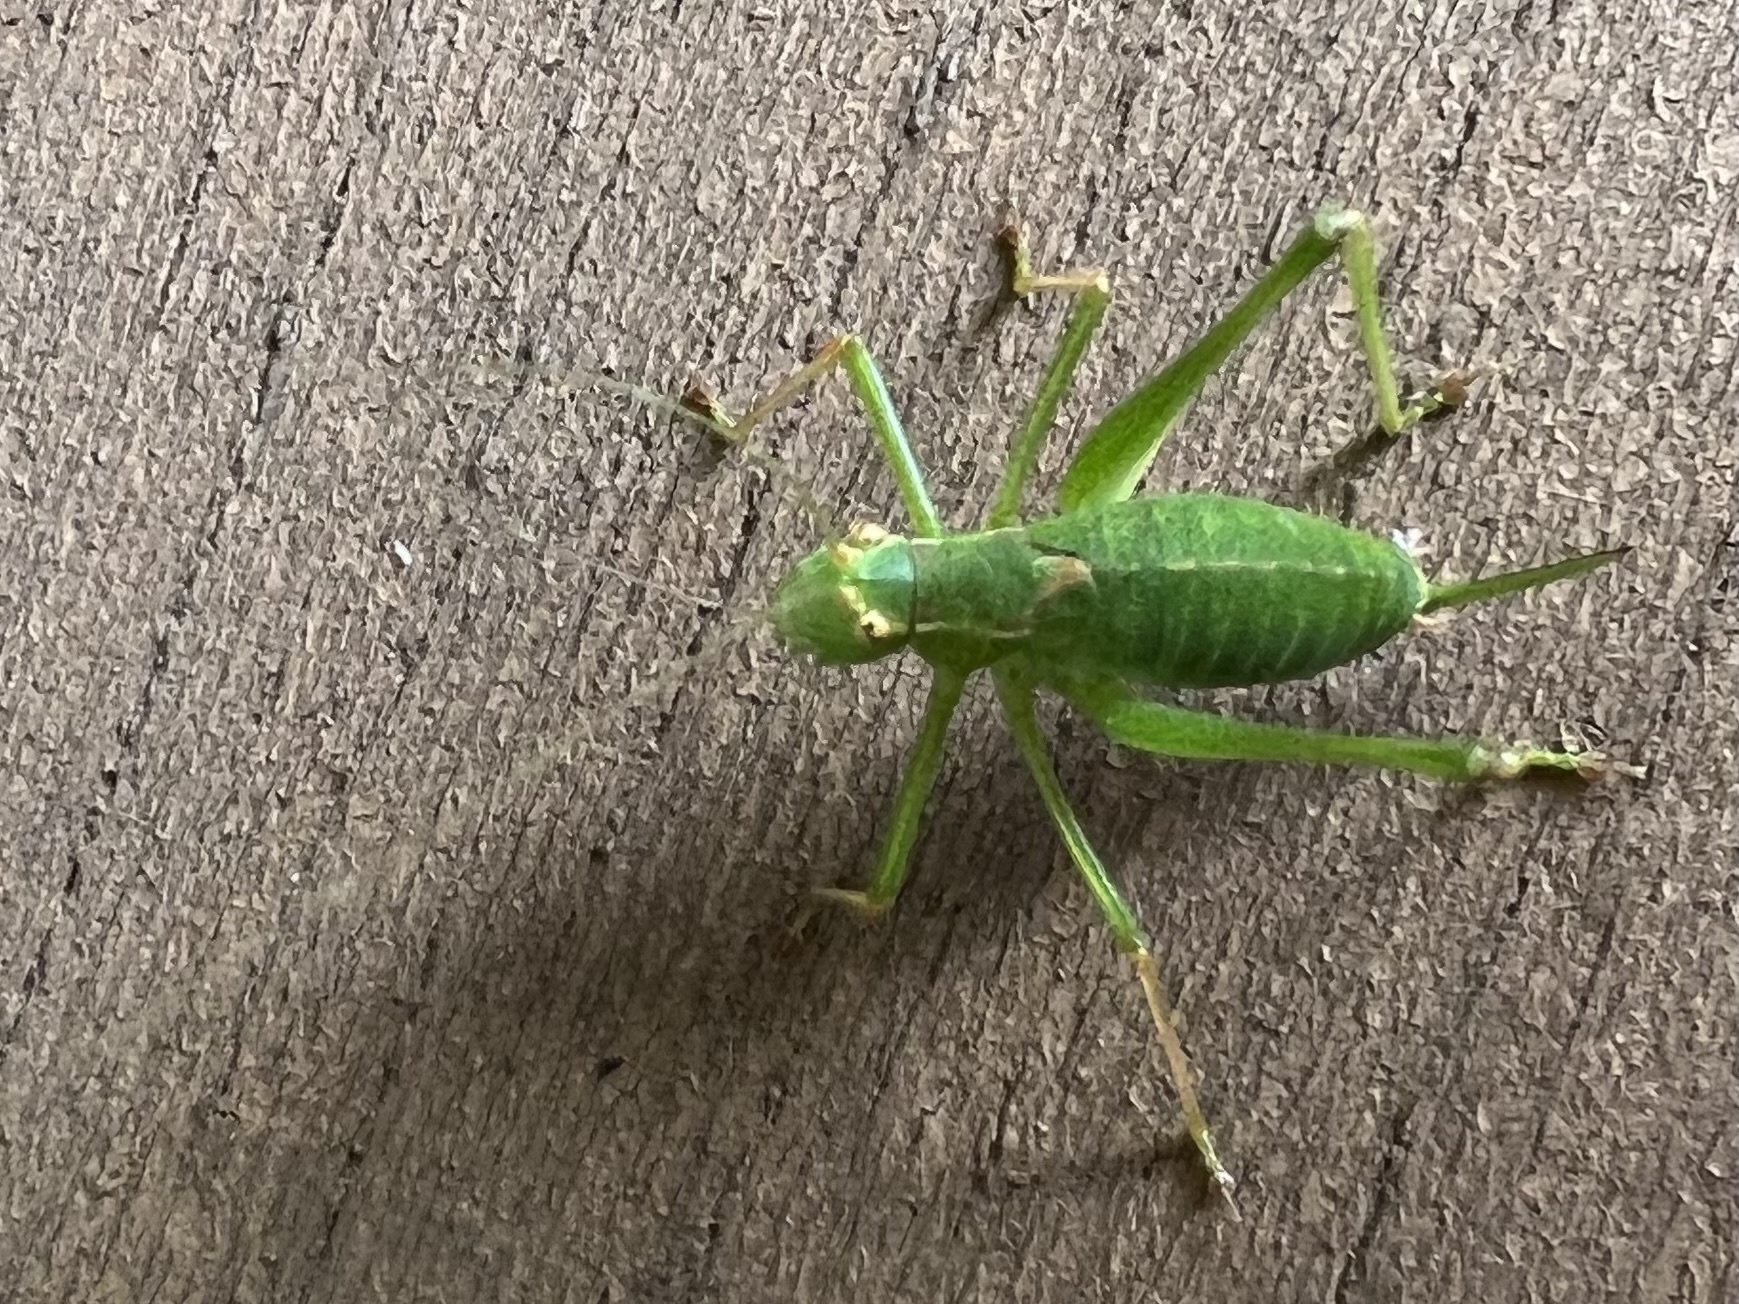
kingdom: Animalia
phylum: Arthropoda
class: Insecta
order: Orthoptera
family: Tettigoniidae
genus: Leptophyes
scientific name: Leptophyes punctatissima
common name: Speckled bush-cricket
